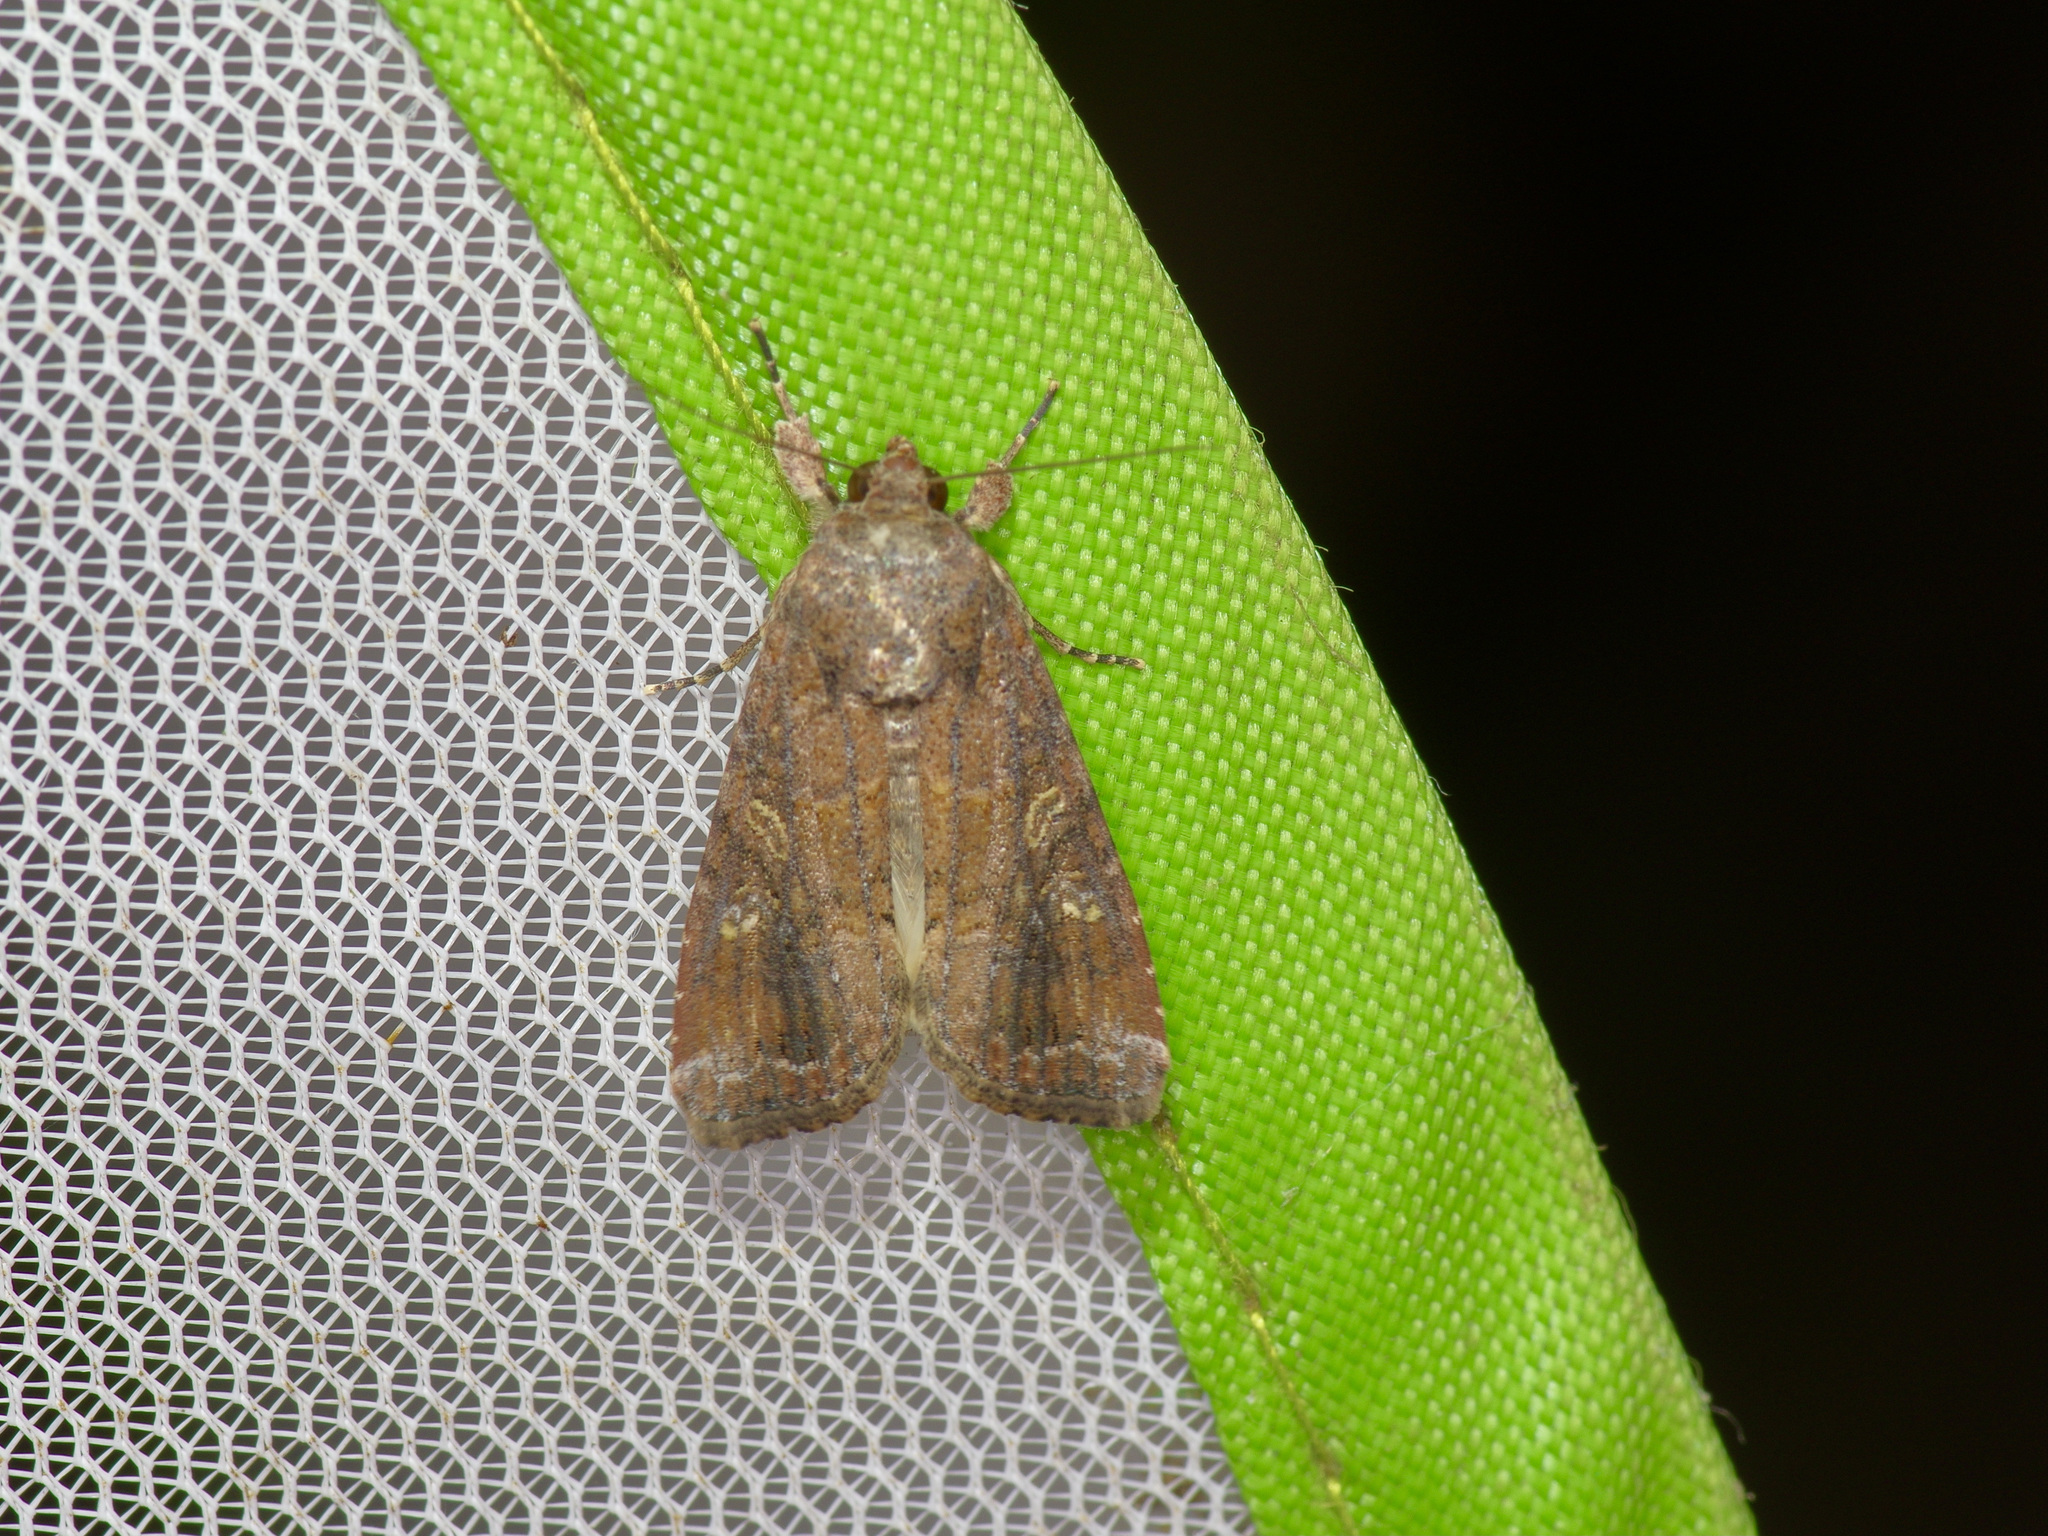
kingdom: Animalia
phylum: Arthropoda
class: Insecta
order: Lepidoptera
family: Noctuidae
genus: Spodoptera
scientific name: Spodoptera frugiperda
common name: Fall armyworm
